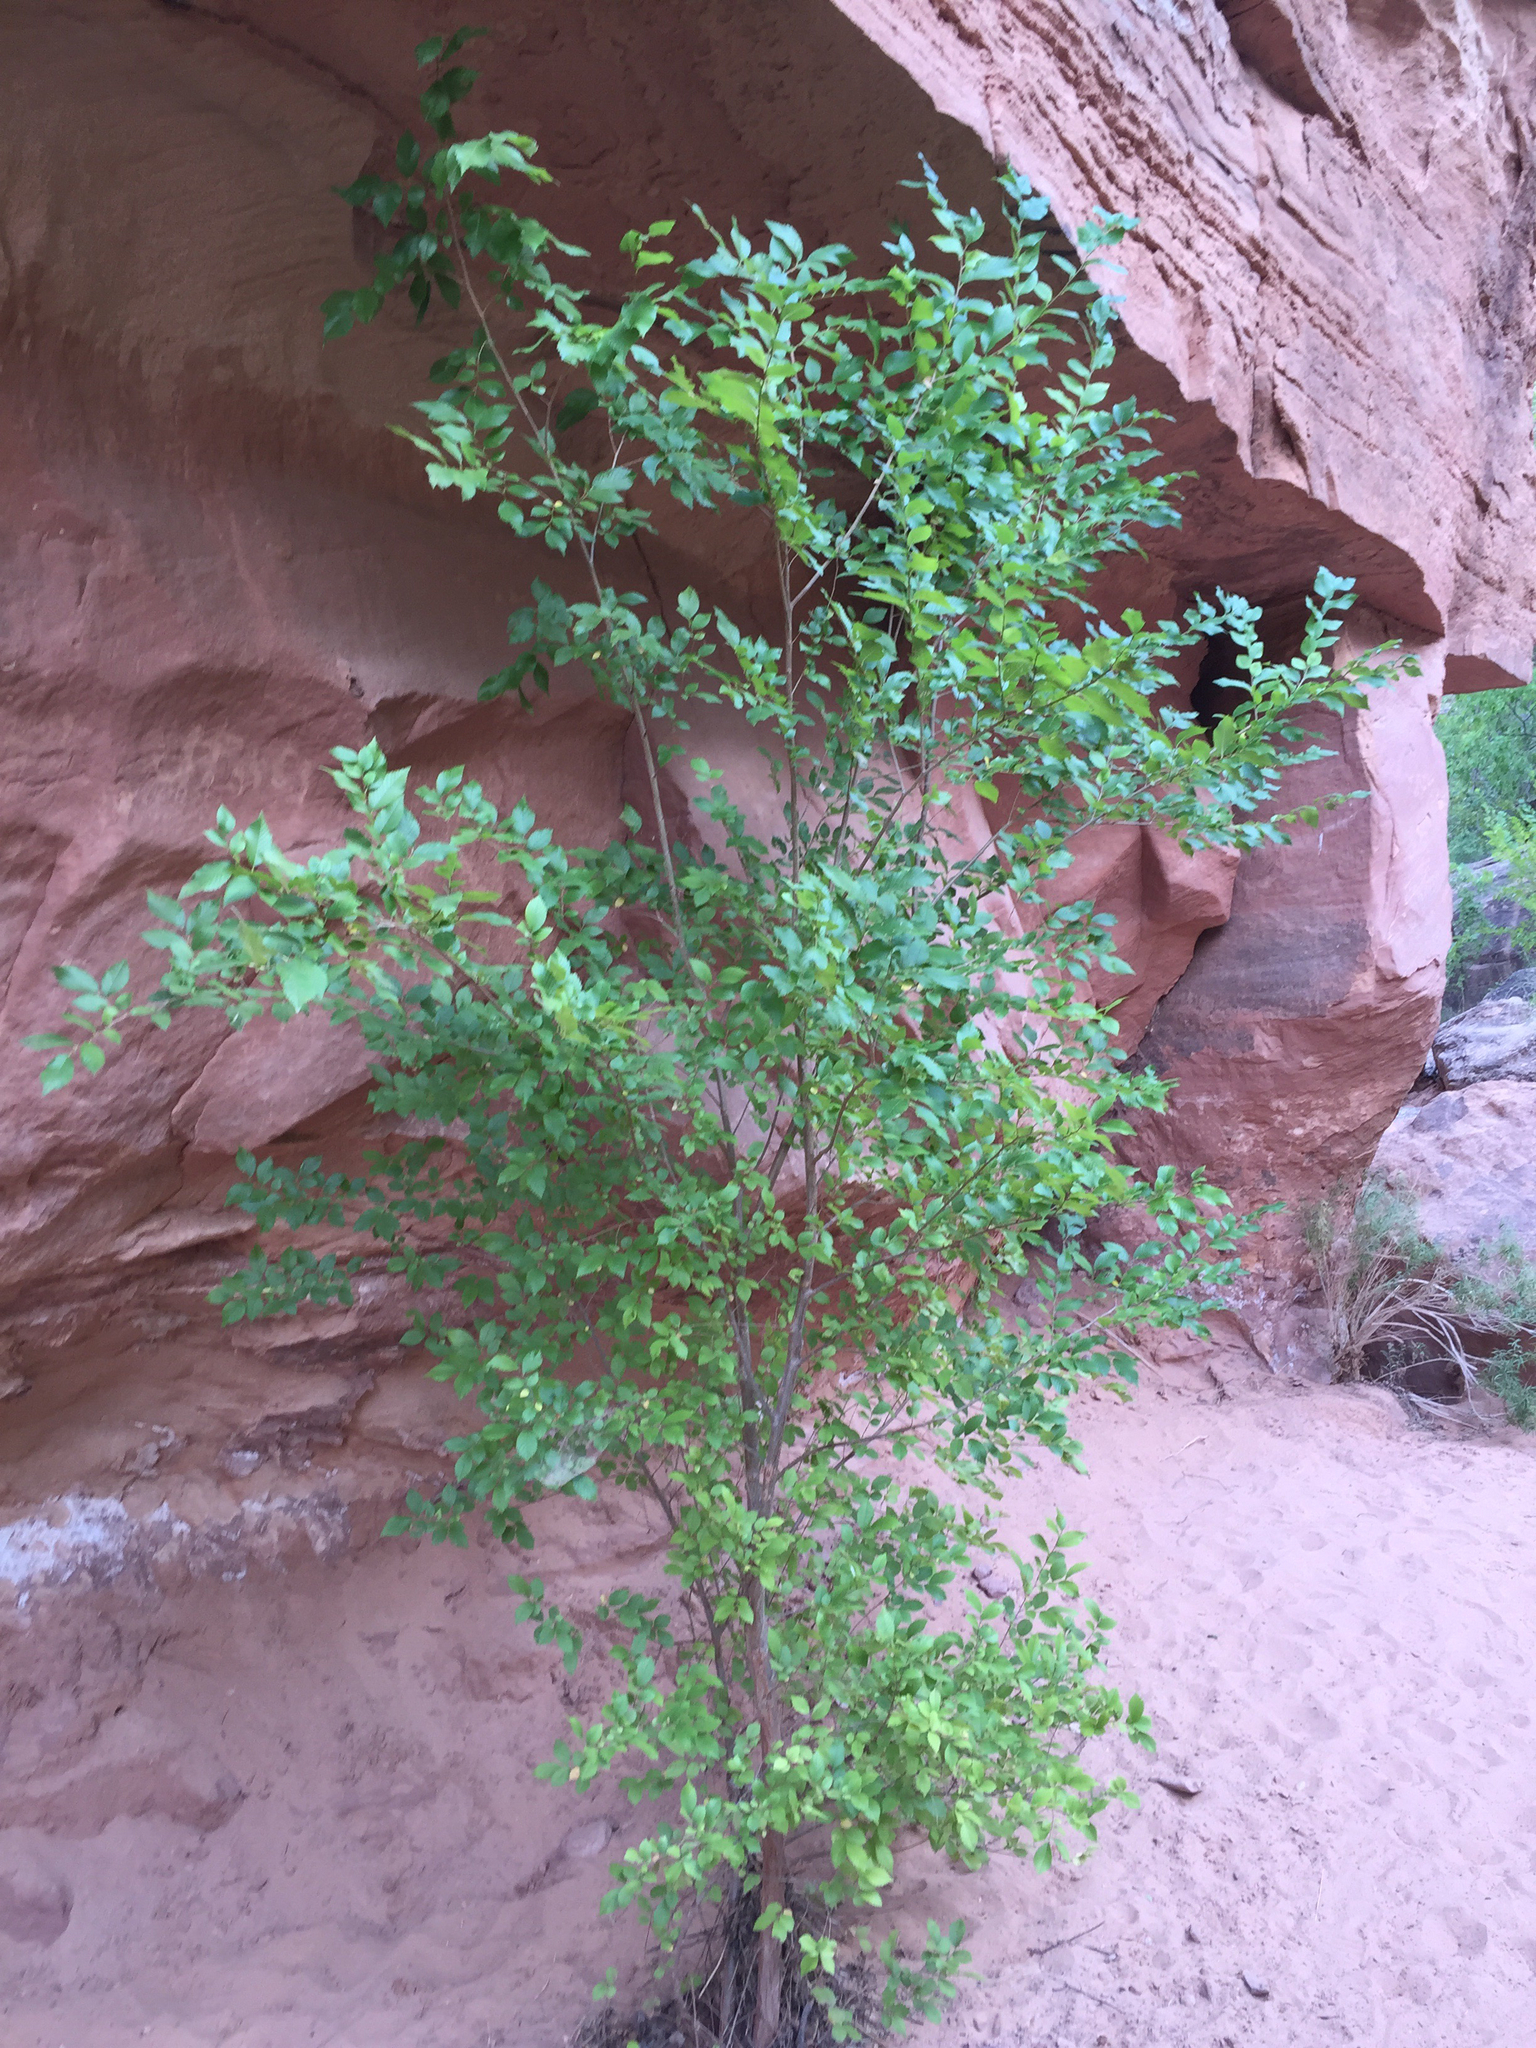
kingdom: Plantae
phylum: Tracheophyta
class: Magnoliopsida
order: Rosales
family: Ulmaceae
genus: Ulmus
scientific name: Ulmus pumila
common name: Siberian elm
